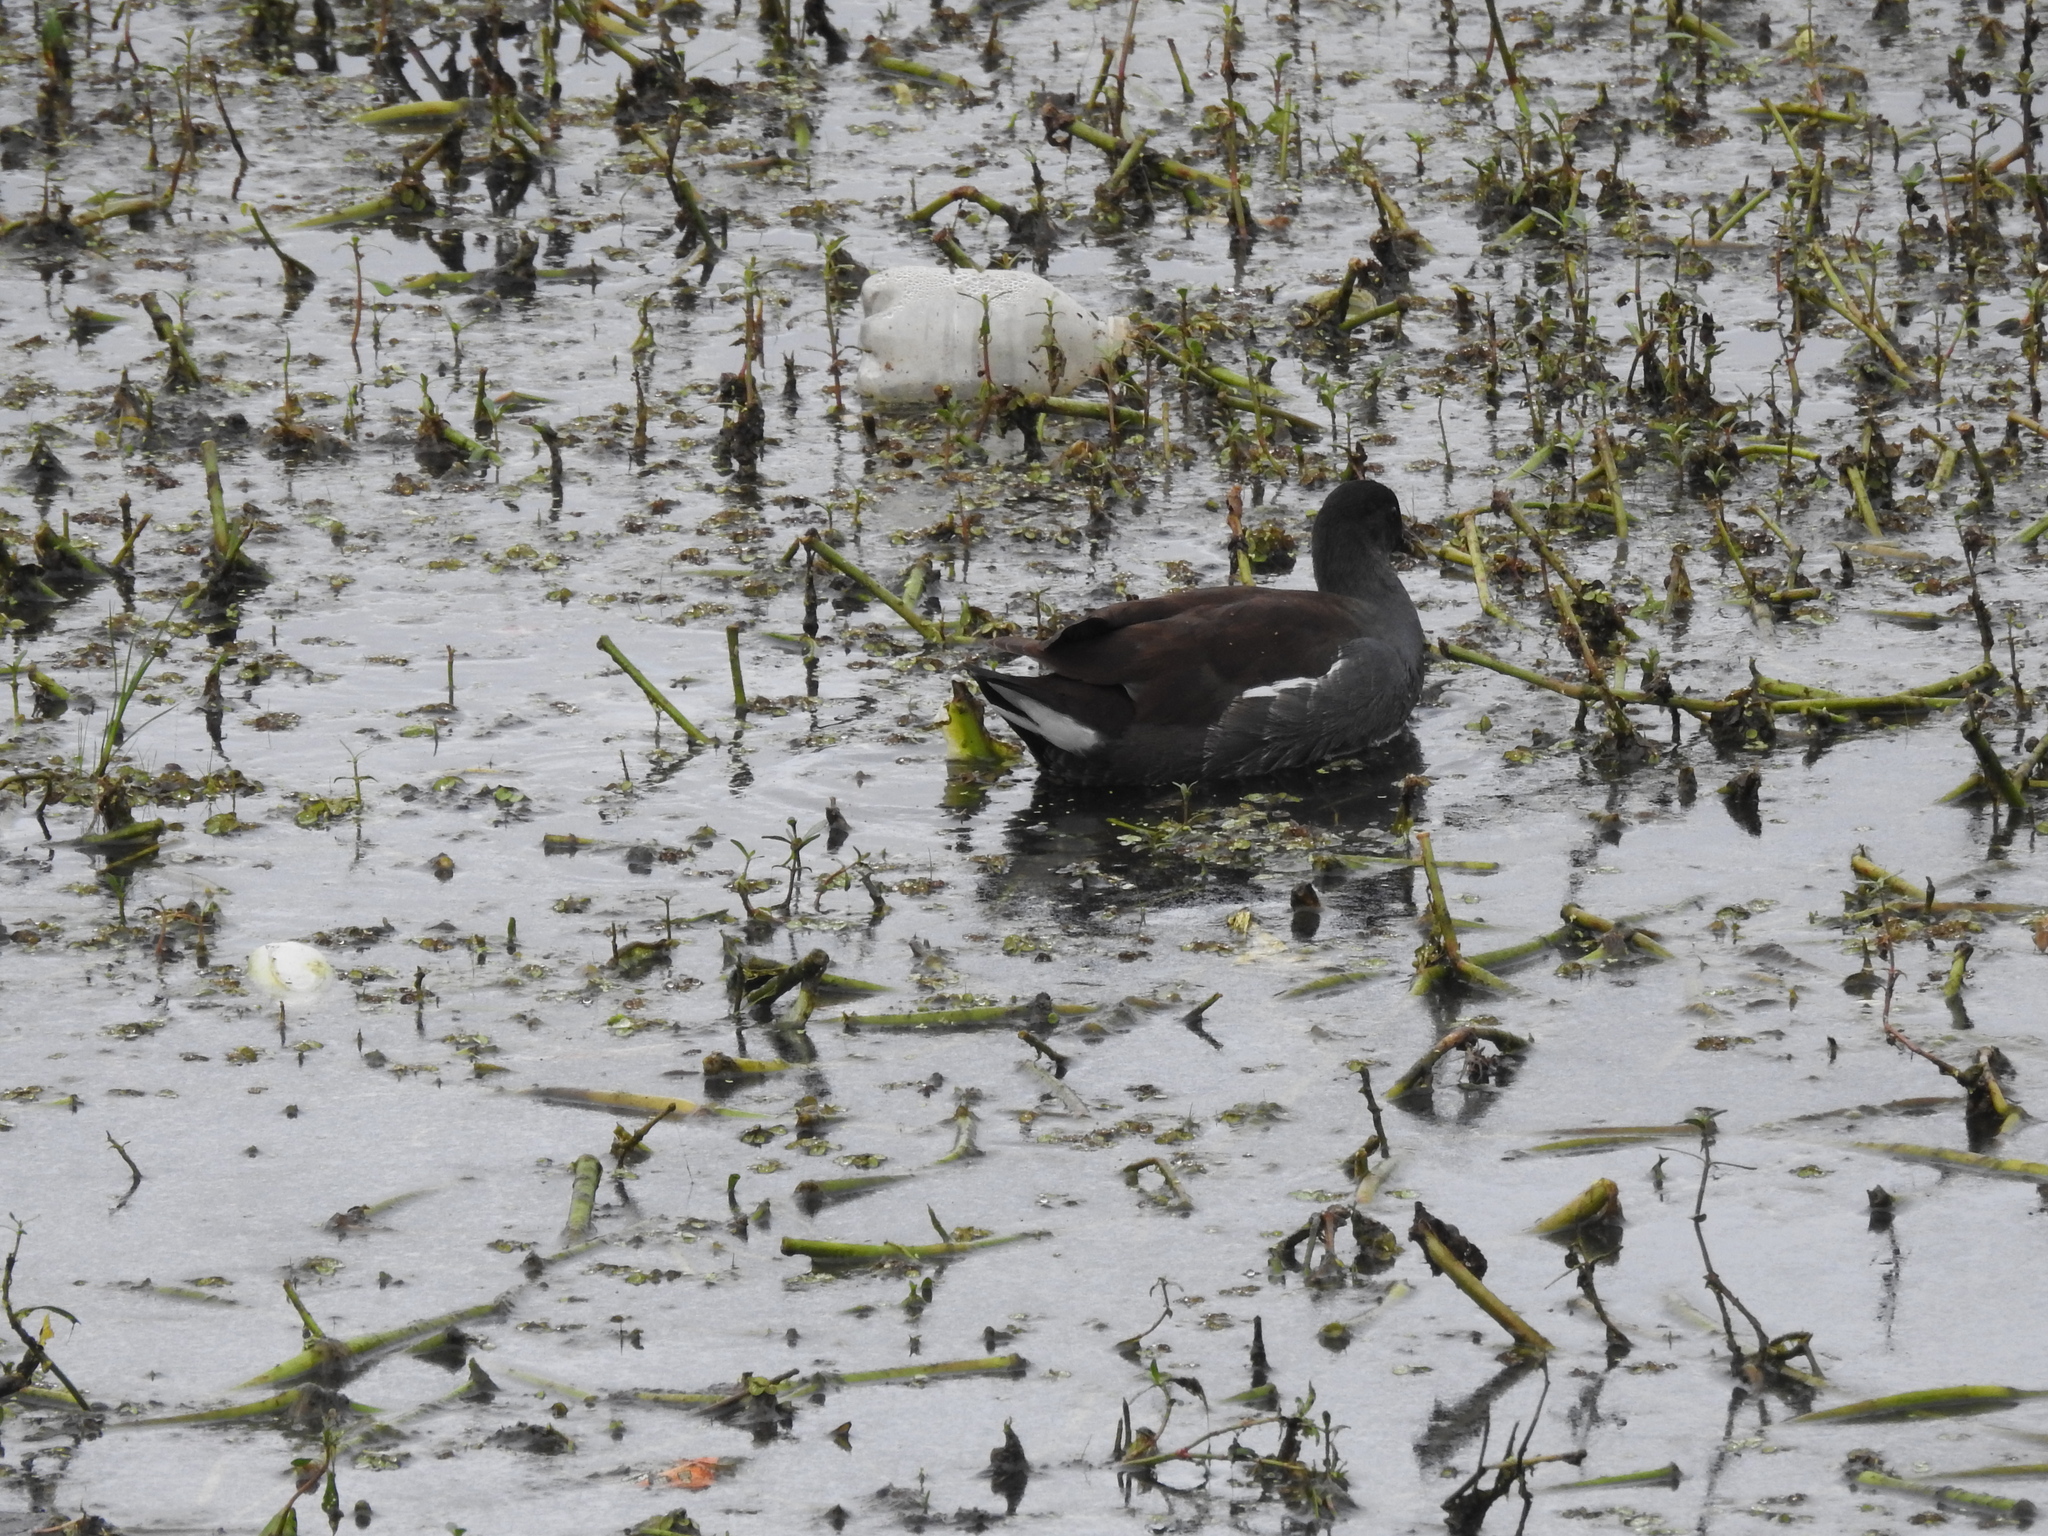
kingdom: Animalia
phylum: Chordata
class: Aves
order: Gruiformes
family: Rallidae
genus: Gallinula
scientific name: Gallinula chloropus
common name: Common moorhen
